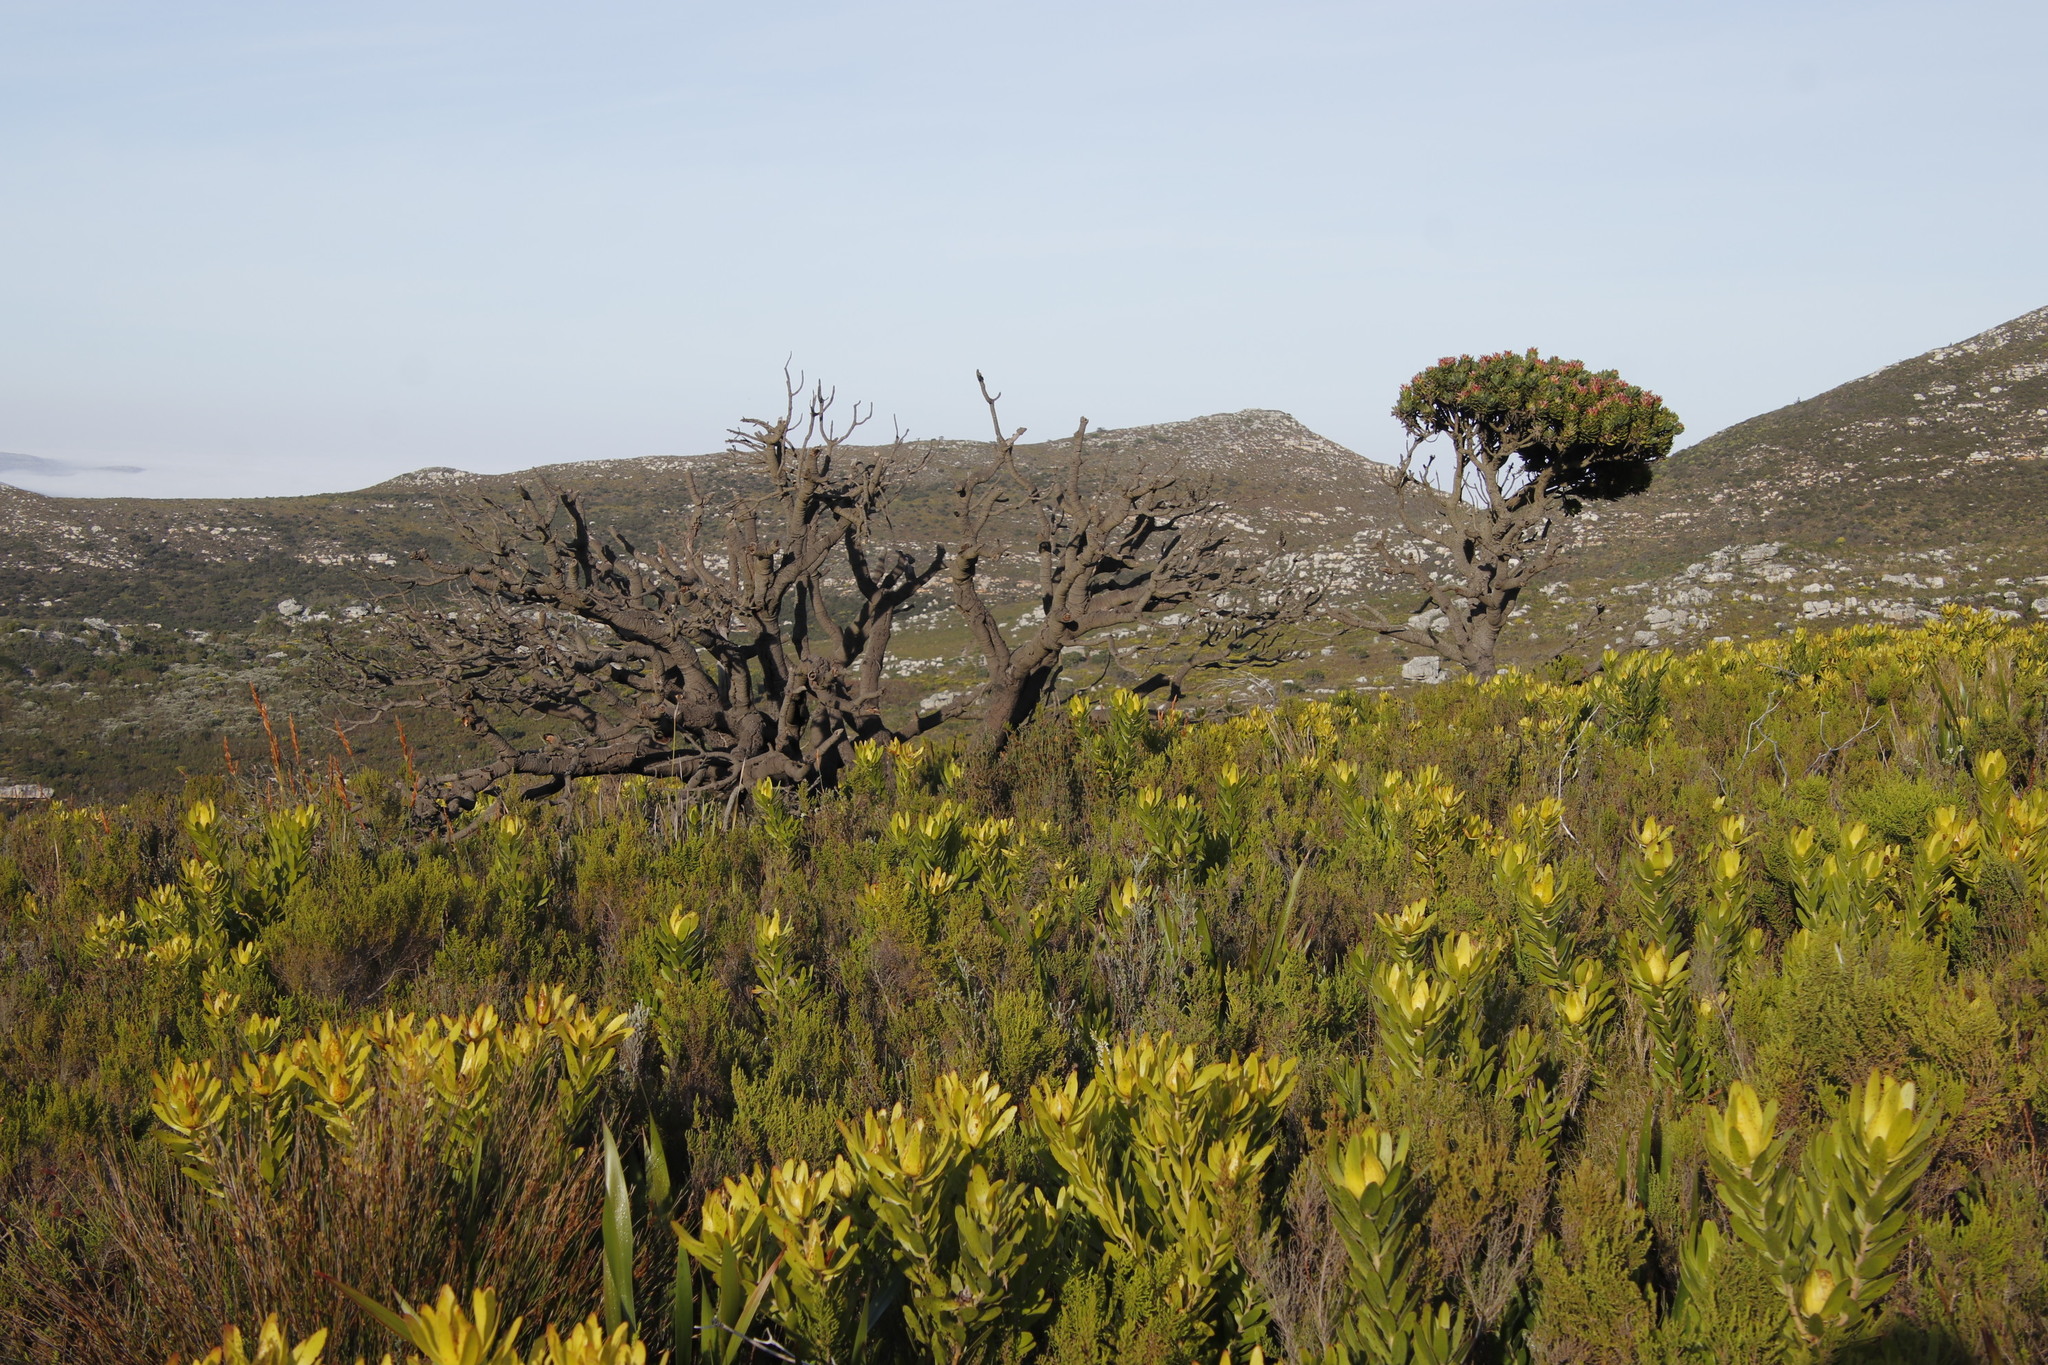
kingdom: Plantae
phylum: Tracheophyta
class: Magnoliopsida
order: Proteales
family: Proteaceae
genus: Mimetes
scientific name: Mimetes fimbriifolius
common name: Fringed bottlebrush
